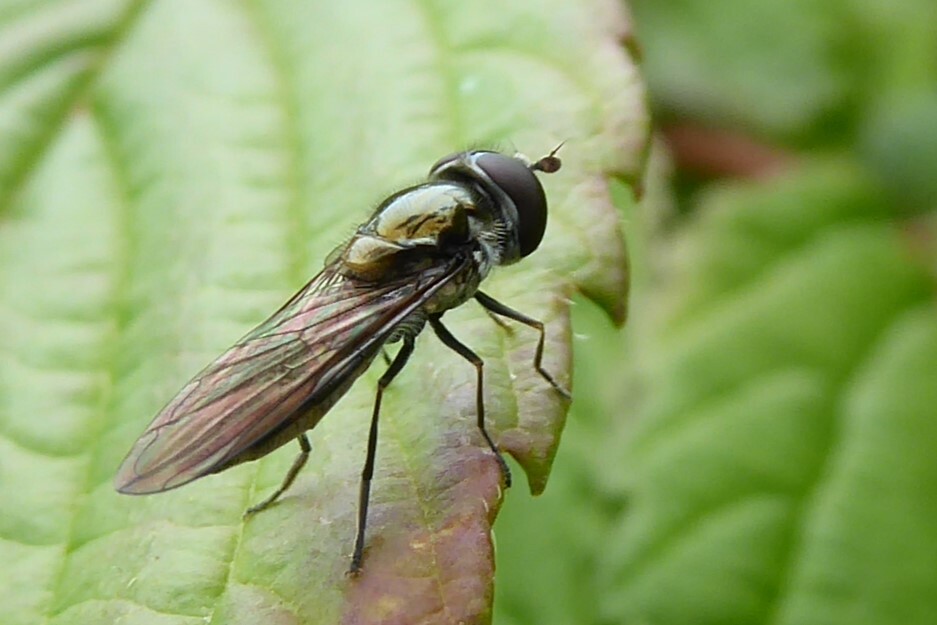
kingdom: Animalia
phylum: Arthropoda
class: Insecta
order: Diptera
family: Syrphidae
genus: Melangyna
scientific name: Melangyna novaezelandiae
